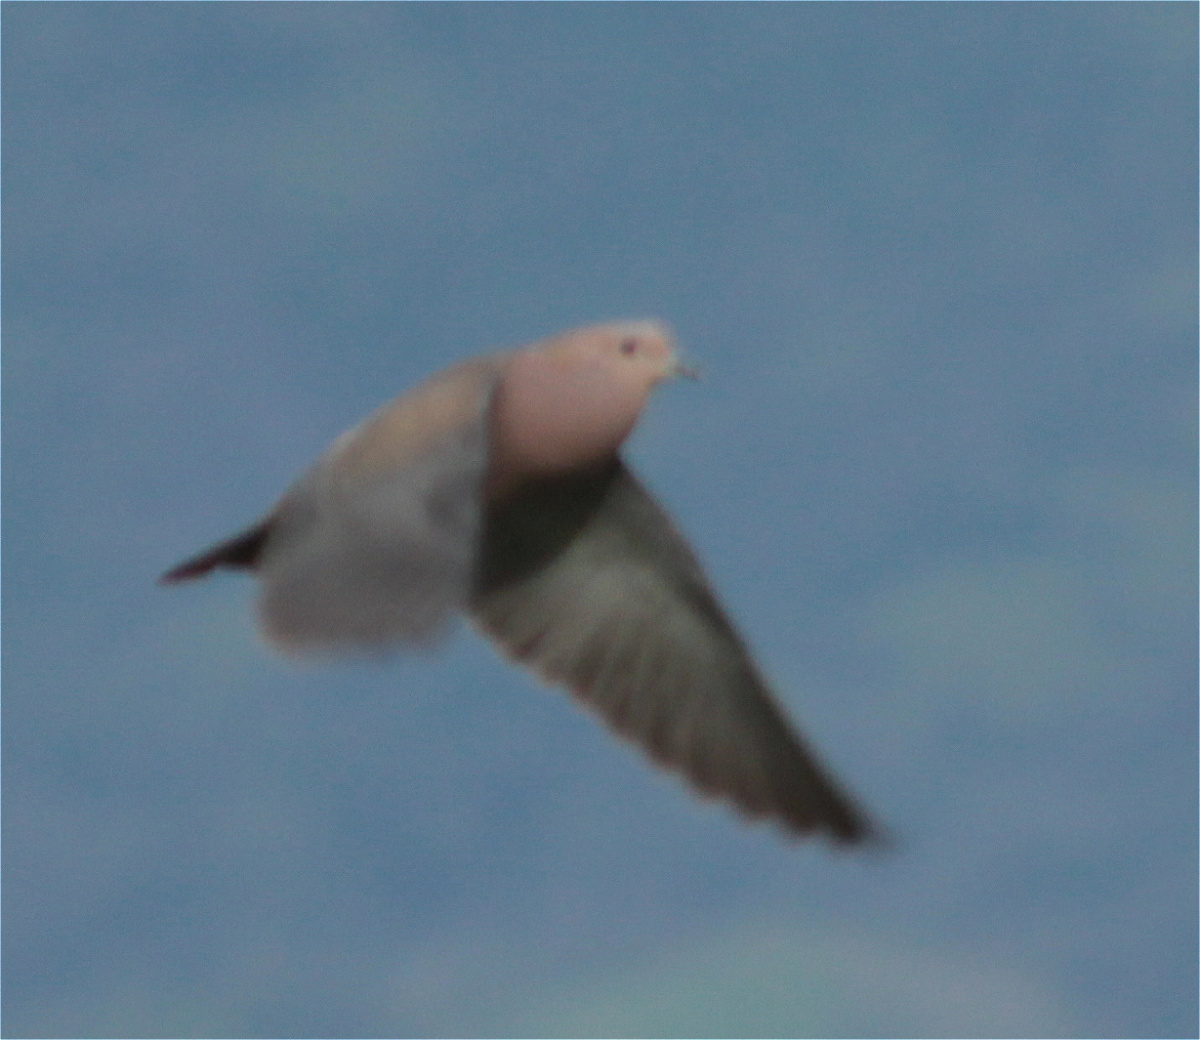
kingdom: Animalia
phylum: Chordata
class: Aves
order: Columbiformes
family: Columbidae
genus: Zenaida
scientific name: Zenaida auriculata
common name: Eared dove
